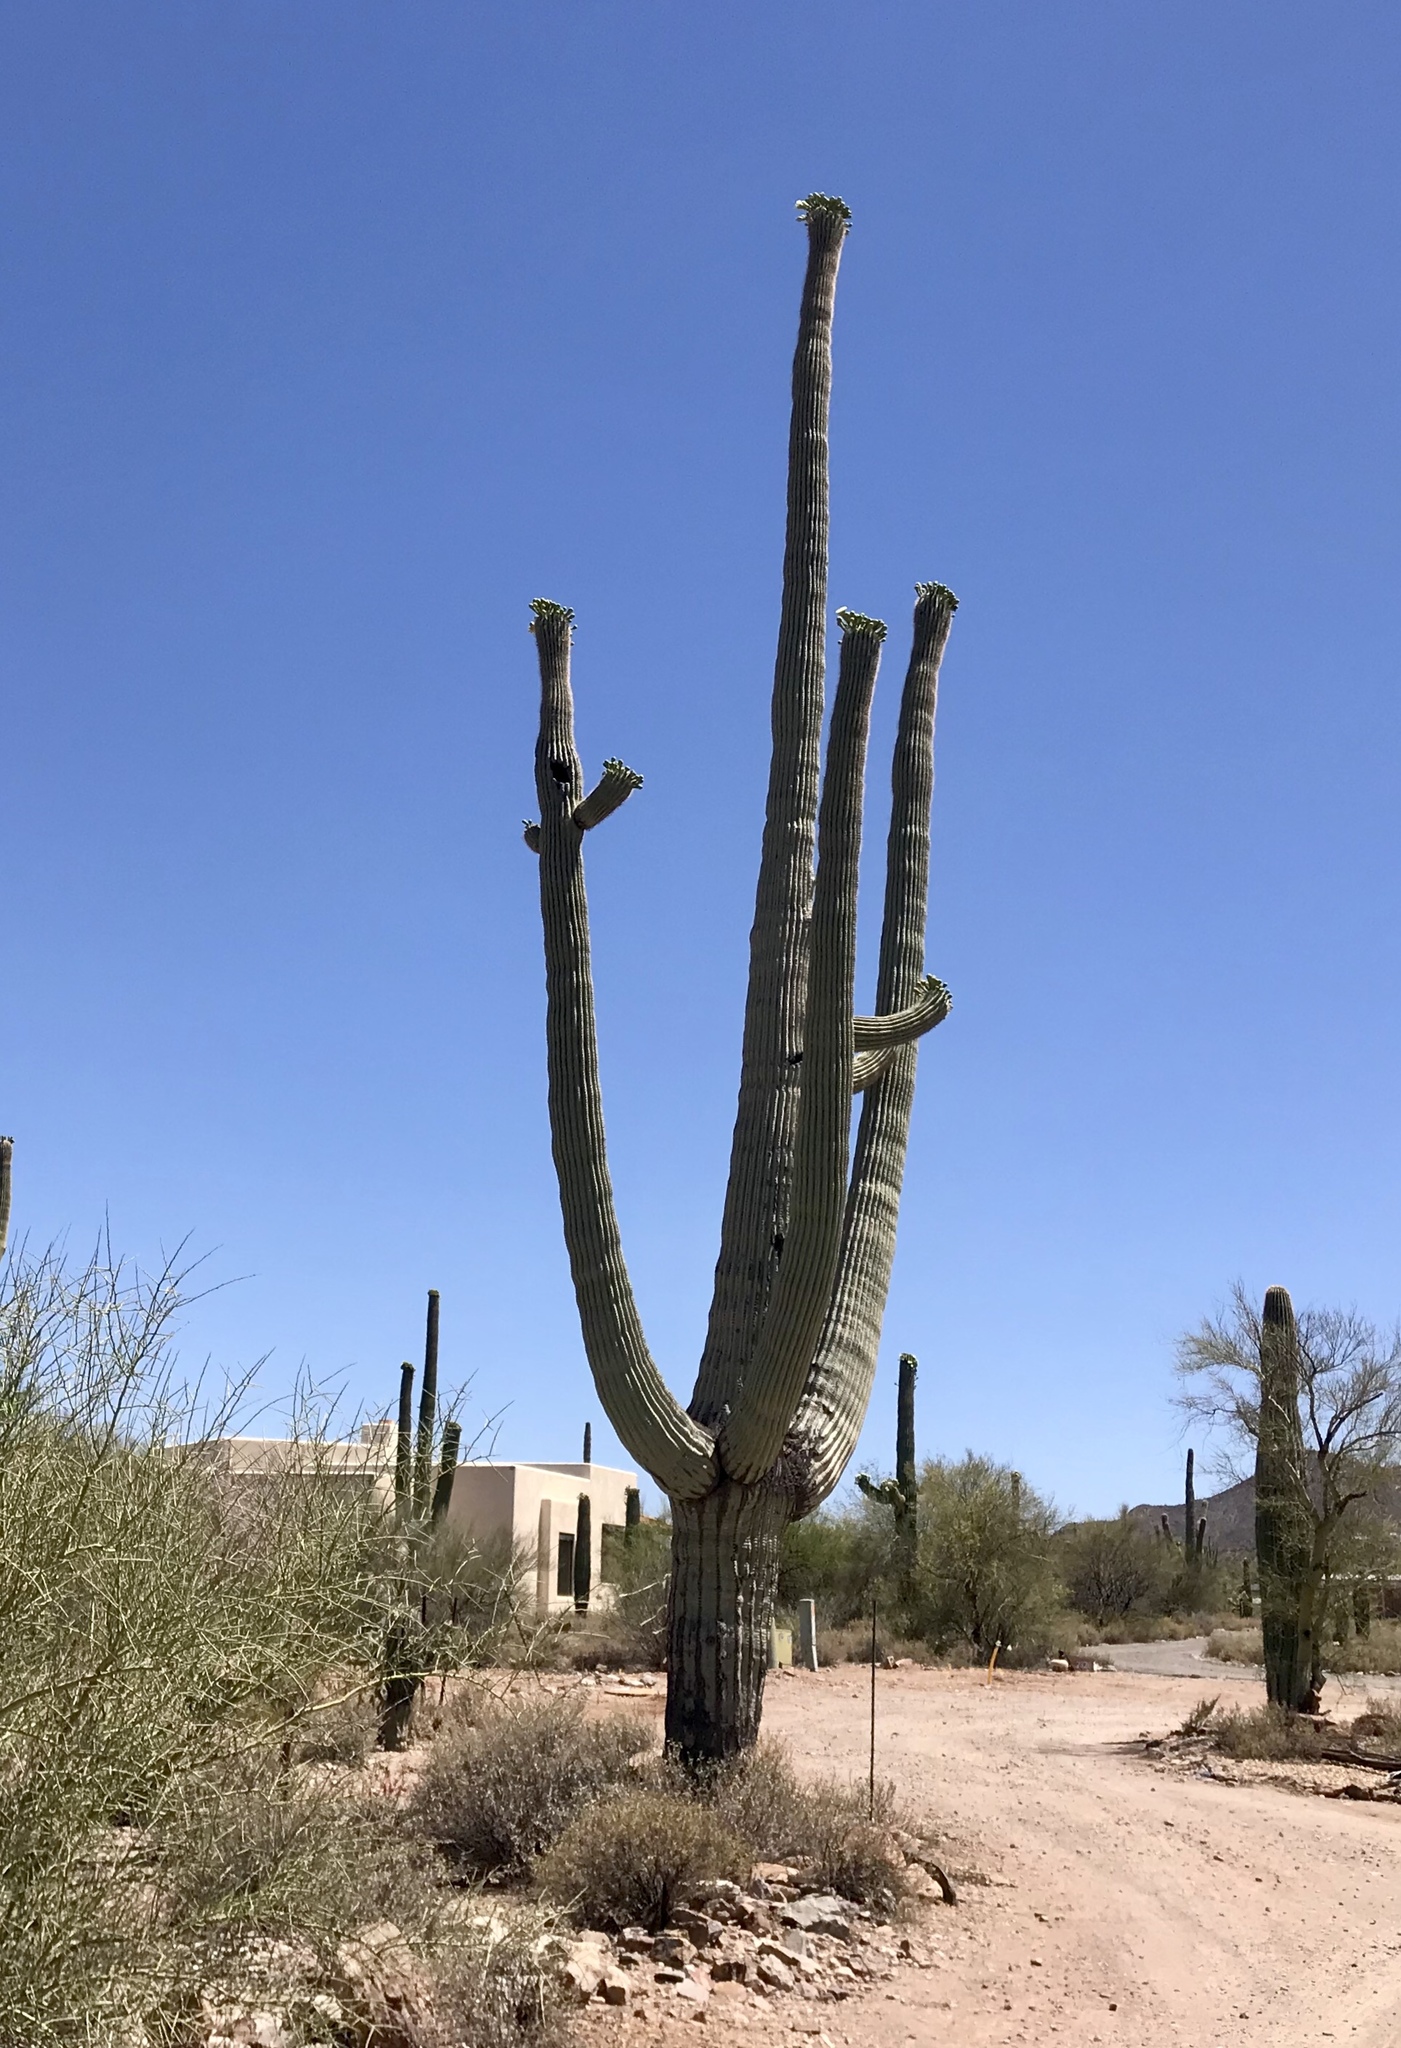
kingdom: Plantae
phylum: Tracheophyta
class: Magnoliopsida
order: Caryophyllales
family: Cactaceae
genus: Carnegiea
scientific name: Carnegiea gigantea
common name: Saguaro
